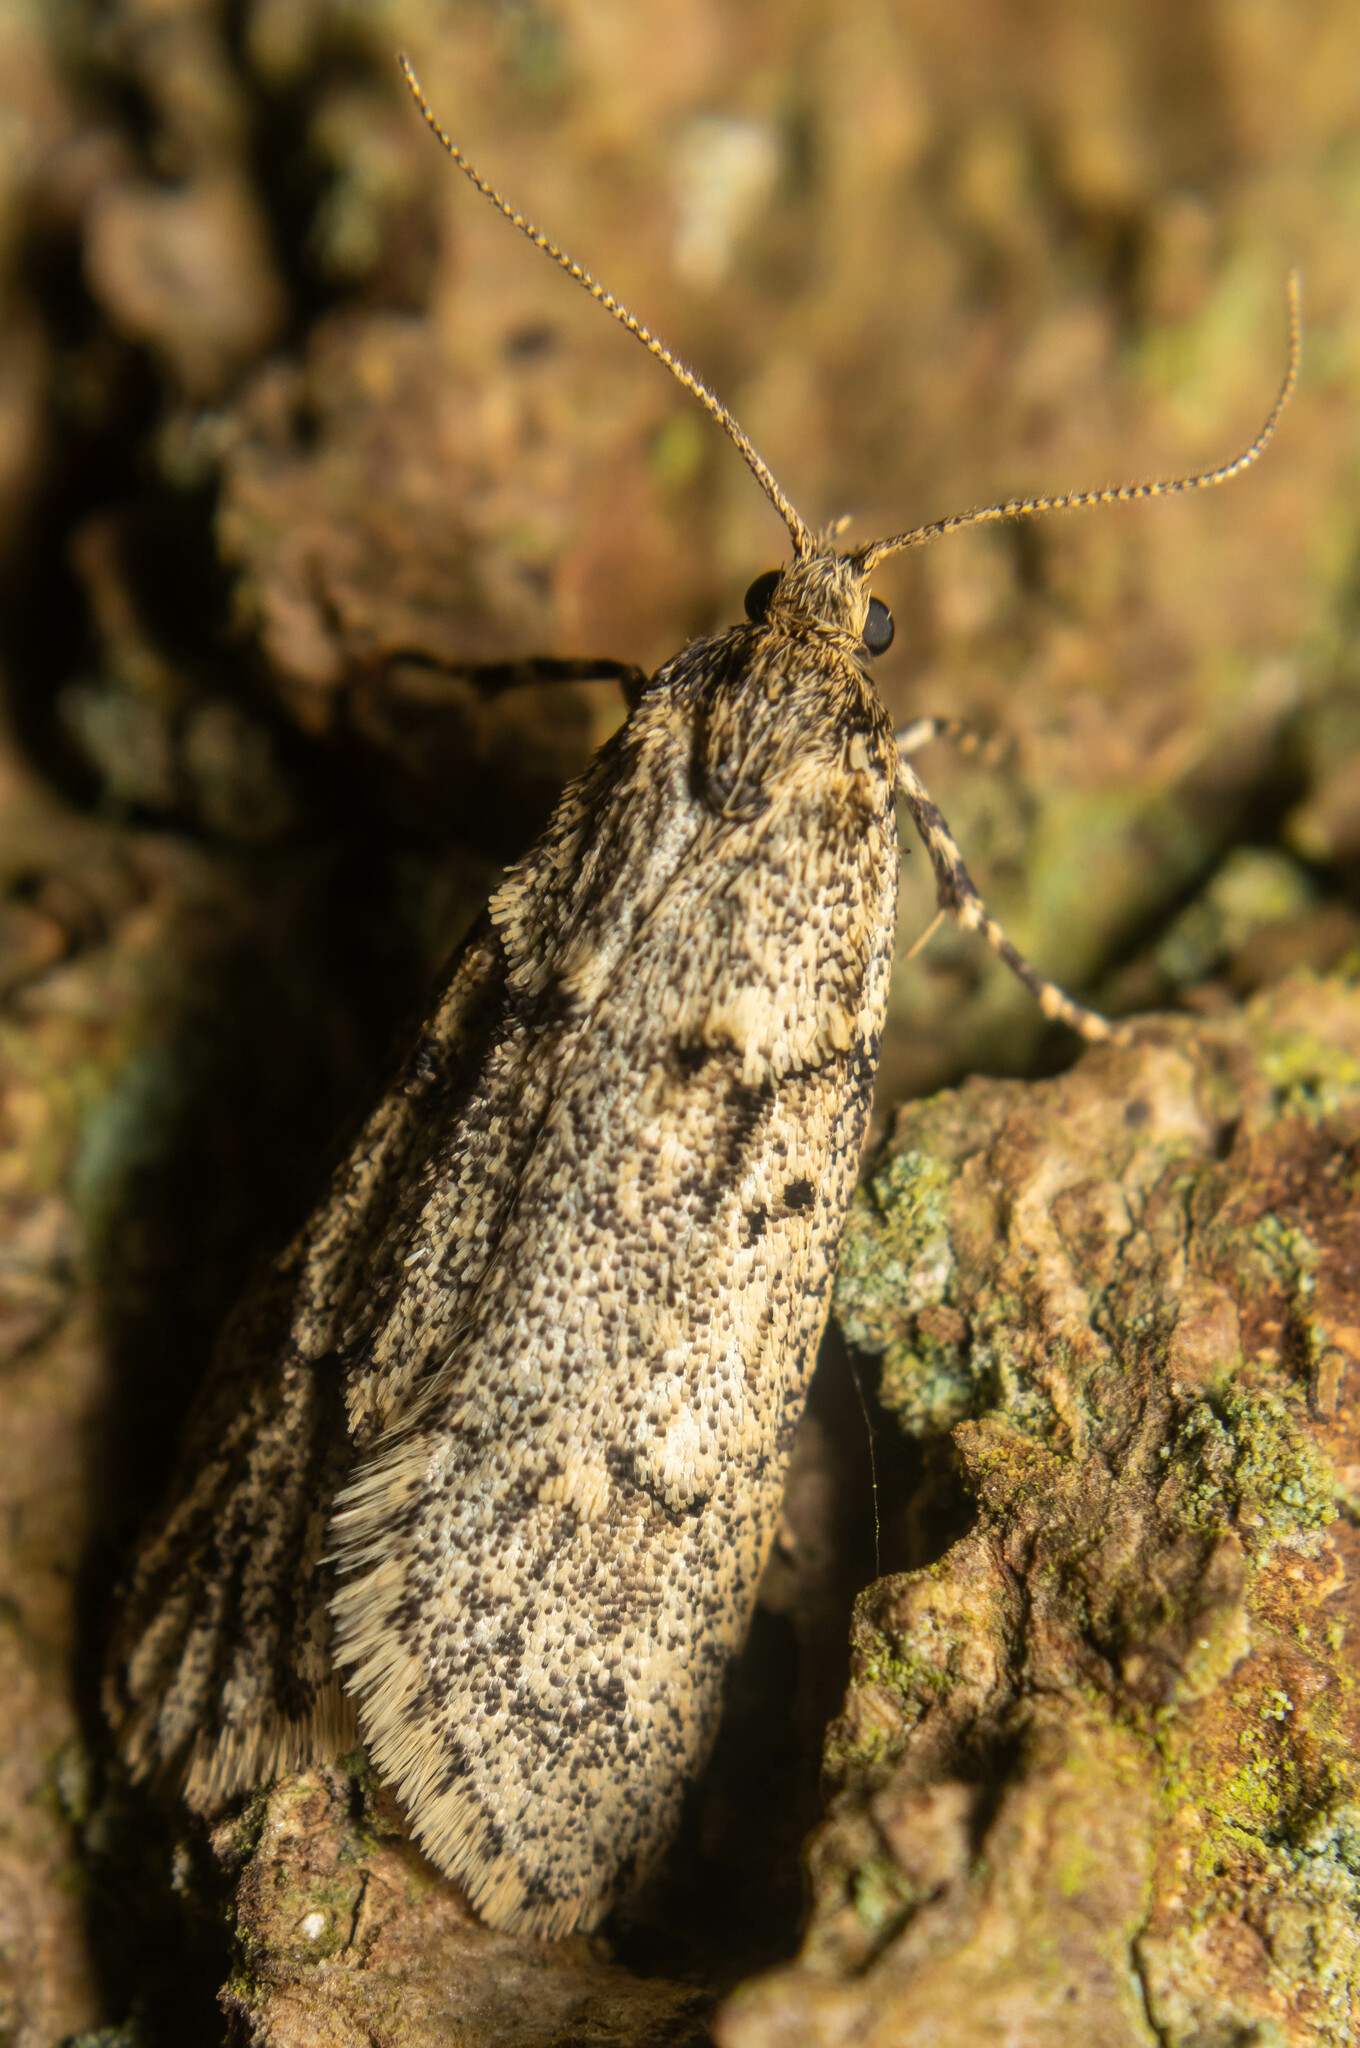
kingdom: Animalia
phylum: Arthropoda
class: Insecta
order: Lepidoptera
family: Lypusidae
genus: Diurnea
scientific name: Diurnea fagella
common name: March tubic
